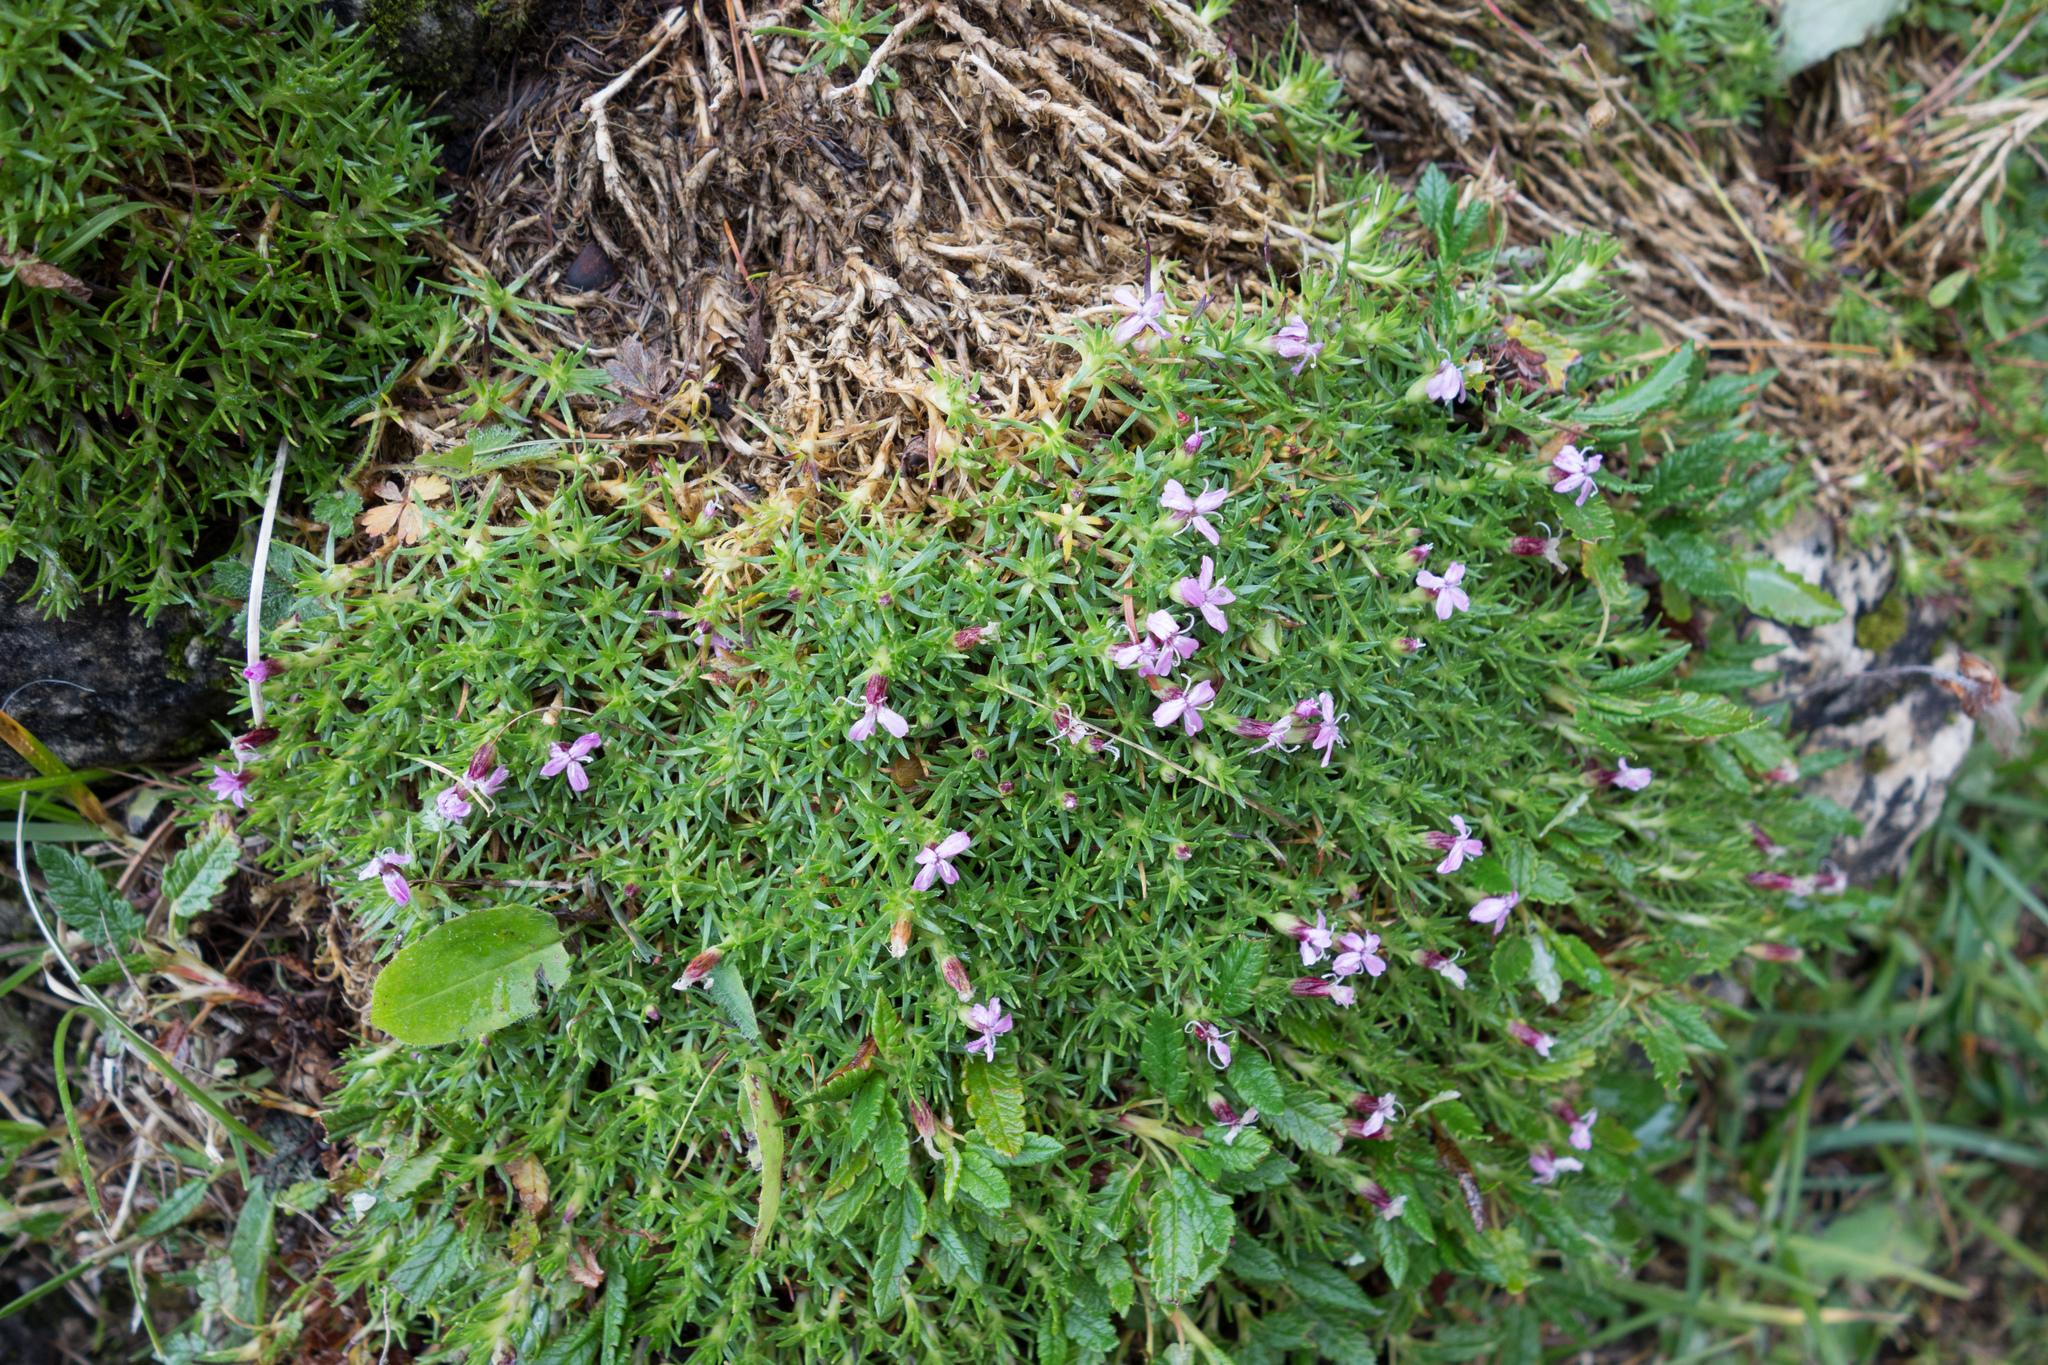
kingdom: Plantae
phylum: Tracheophyta
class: Magnoliopsida
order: Caryophyllales
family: Caryophyllaceae
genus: Silene
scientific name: Silene acaulis
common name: Moss campion
